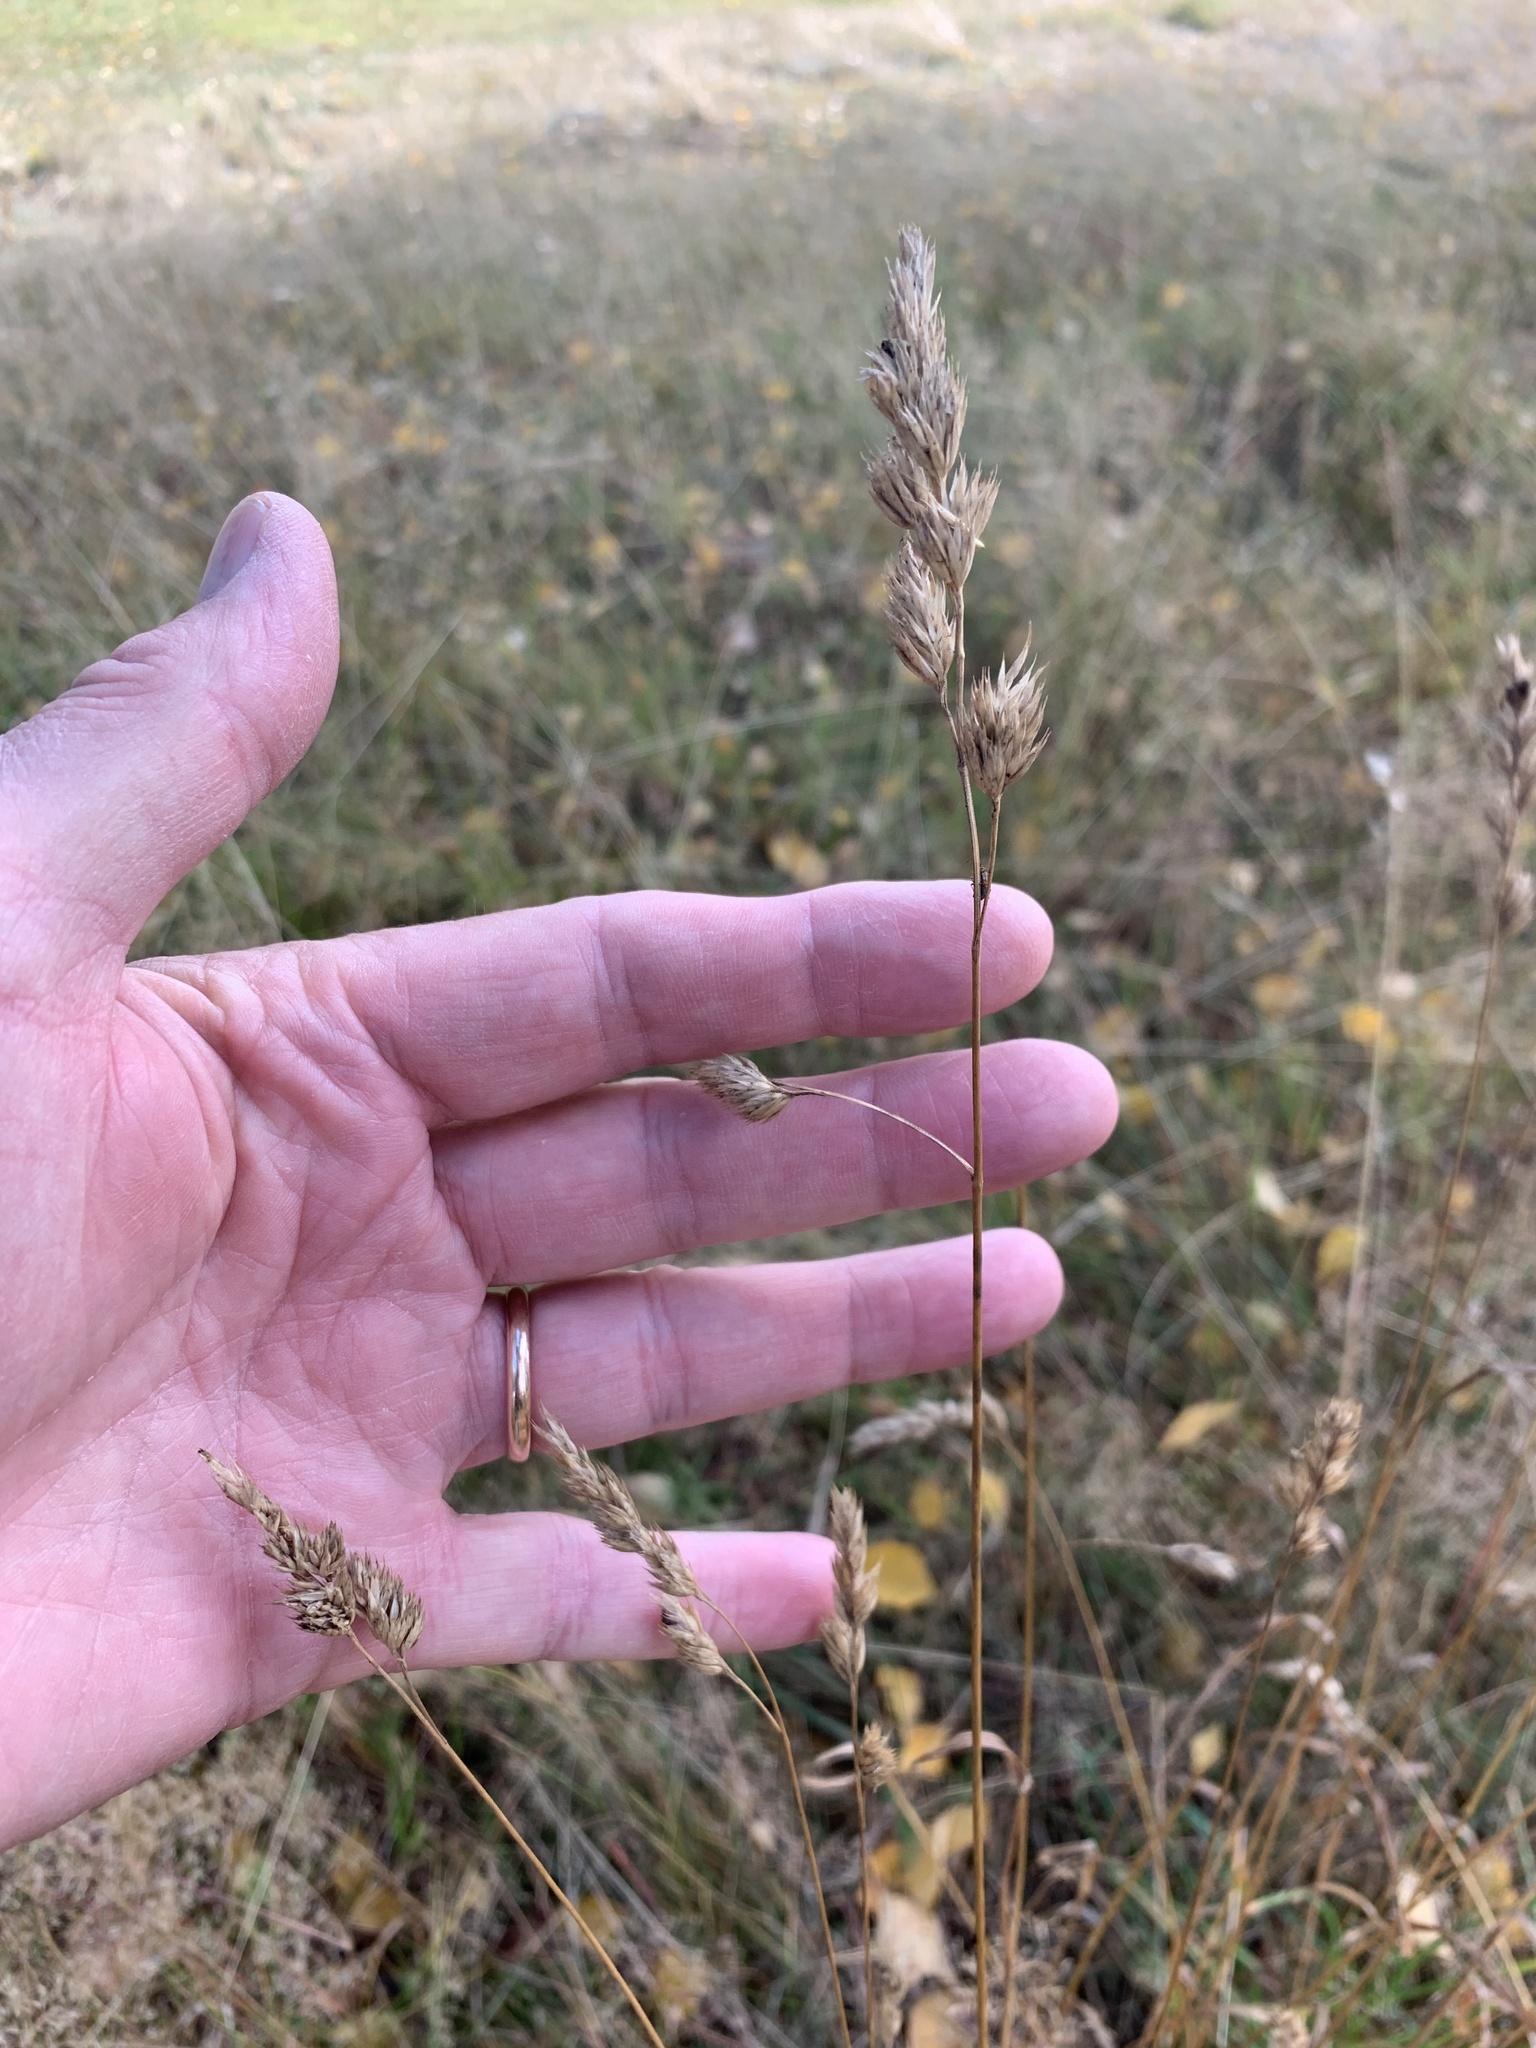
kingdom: Plantae
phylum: Tracheophyta
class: Liliopsida
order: Poales
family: Poaceae
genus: Dactylis
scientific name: Dactylis glomerata
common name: Orchardgrass
